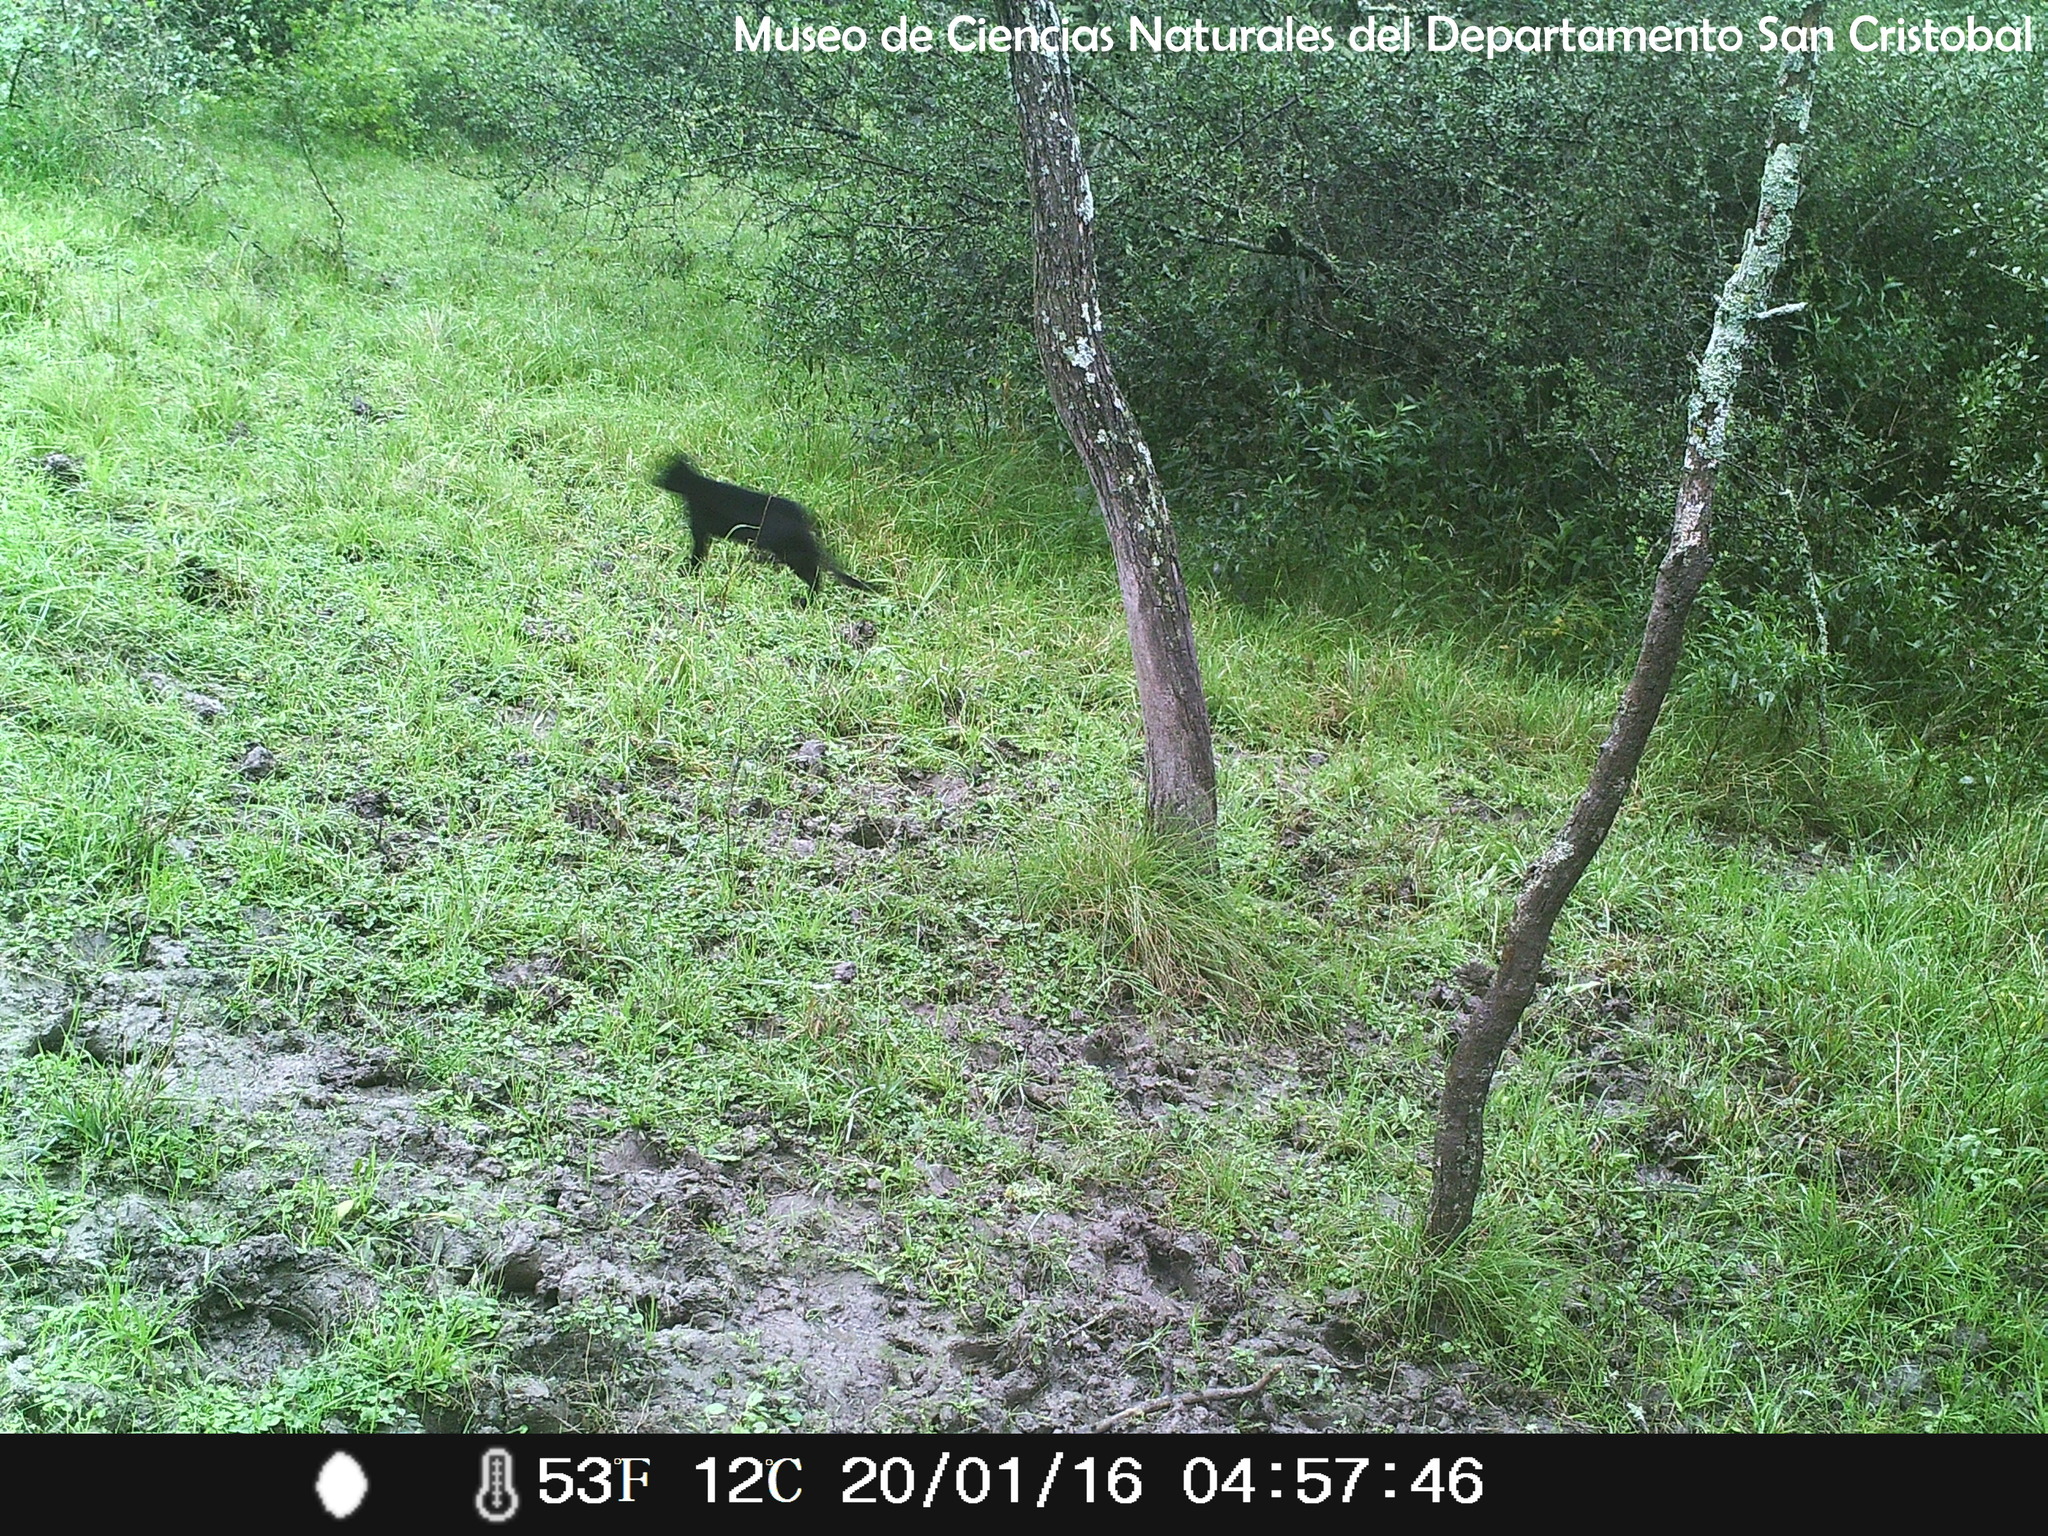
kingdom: Animalia
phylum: Chordata
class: Mammalia
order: Carnivora
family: Felidae
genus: Leopardus
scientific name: Leopardus geoffroyi
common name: Geoffroy's cat
